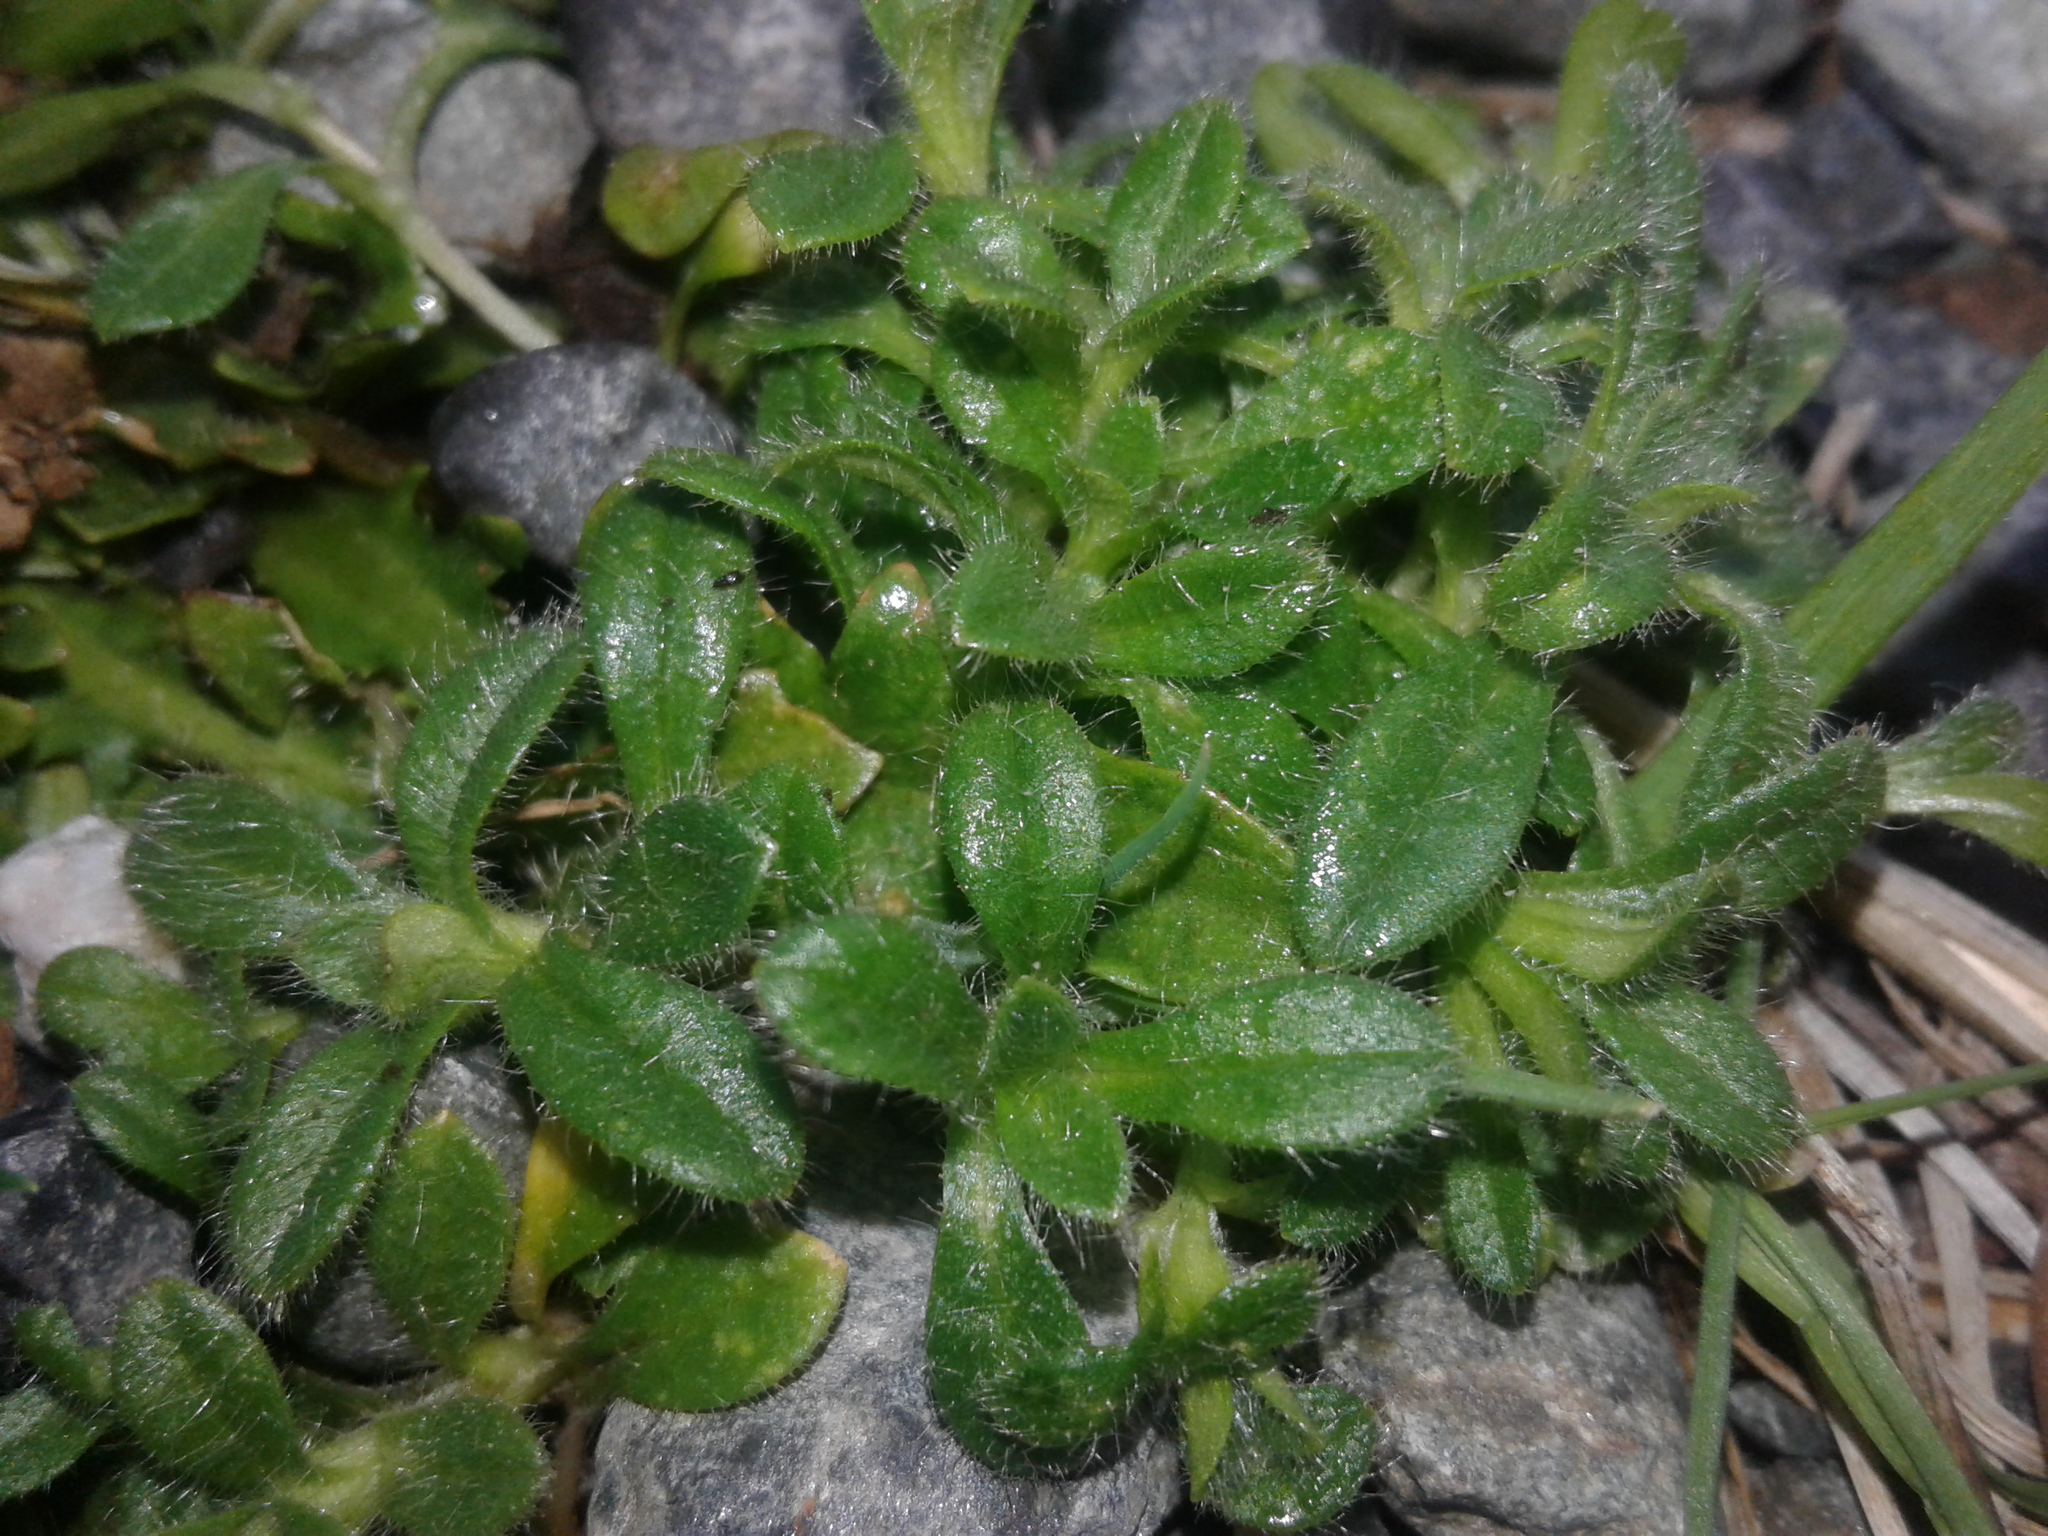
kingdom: Plantae
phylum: Tracheophyta
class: Magnoliopsida
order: Caryophyllales
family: Caryophyllaceae
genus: Cerastium
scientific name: Cerastium fontanum
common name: Common mouse-ear
